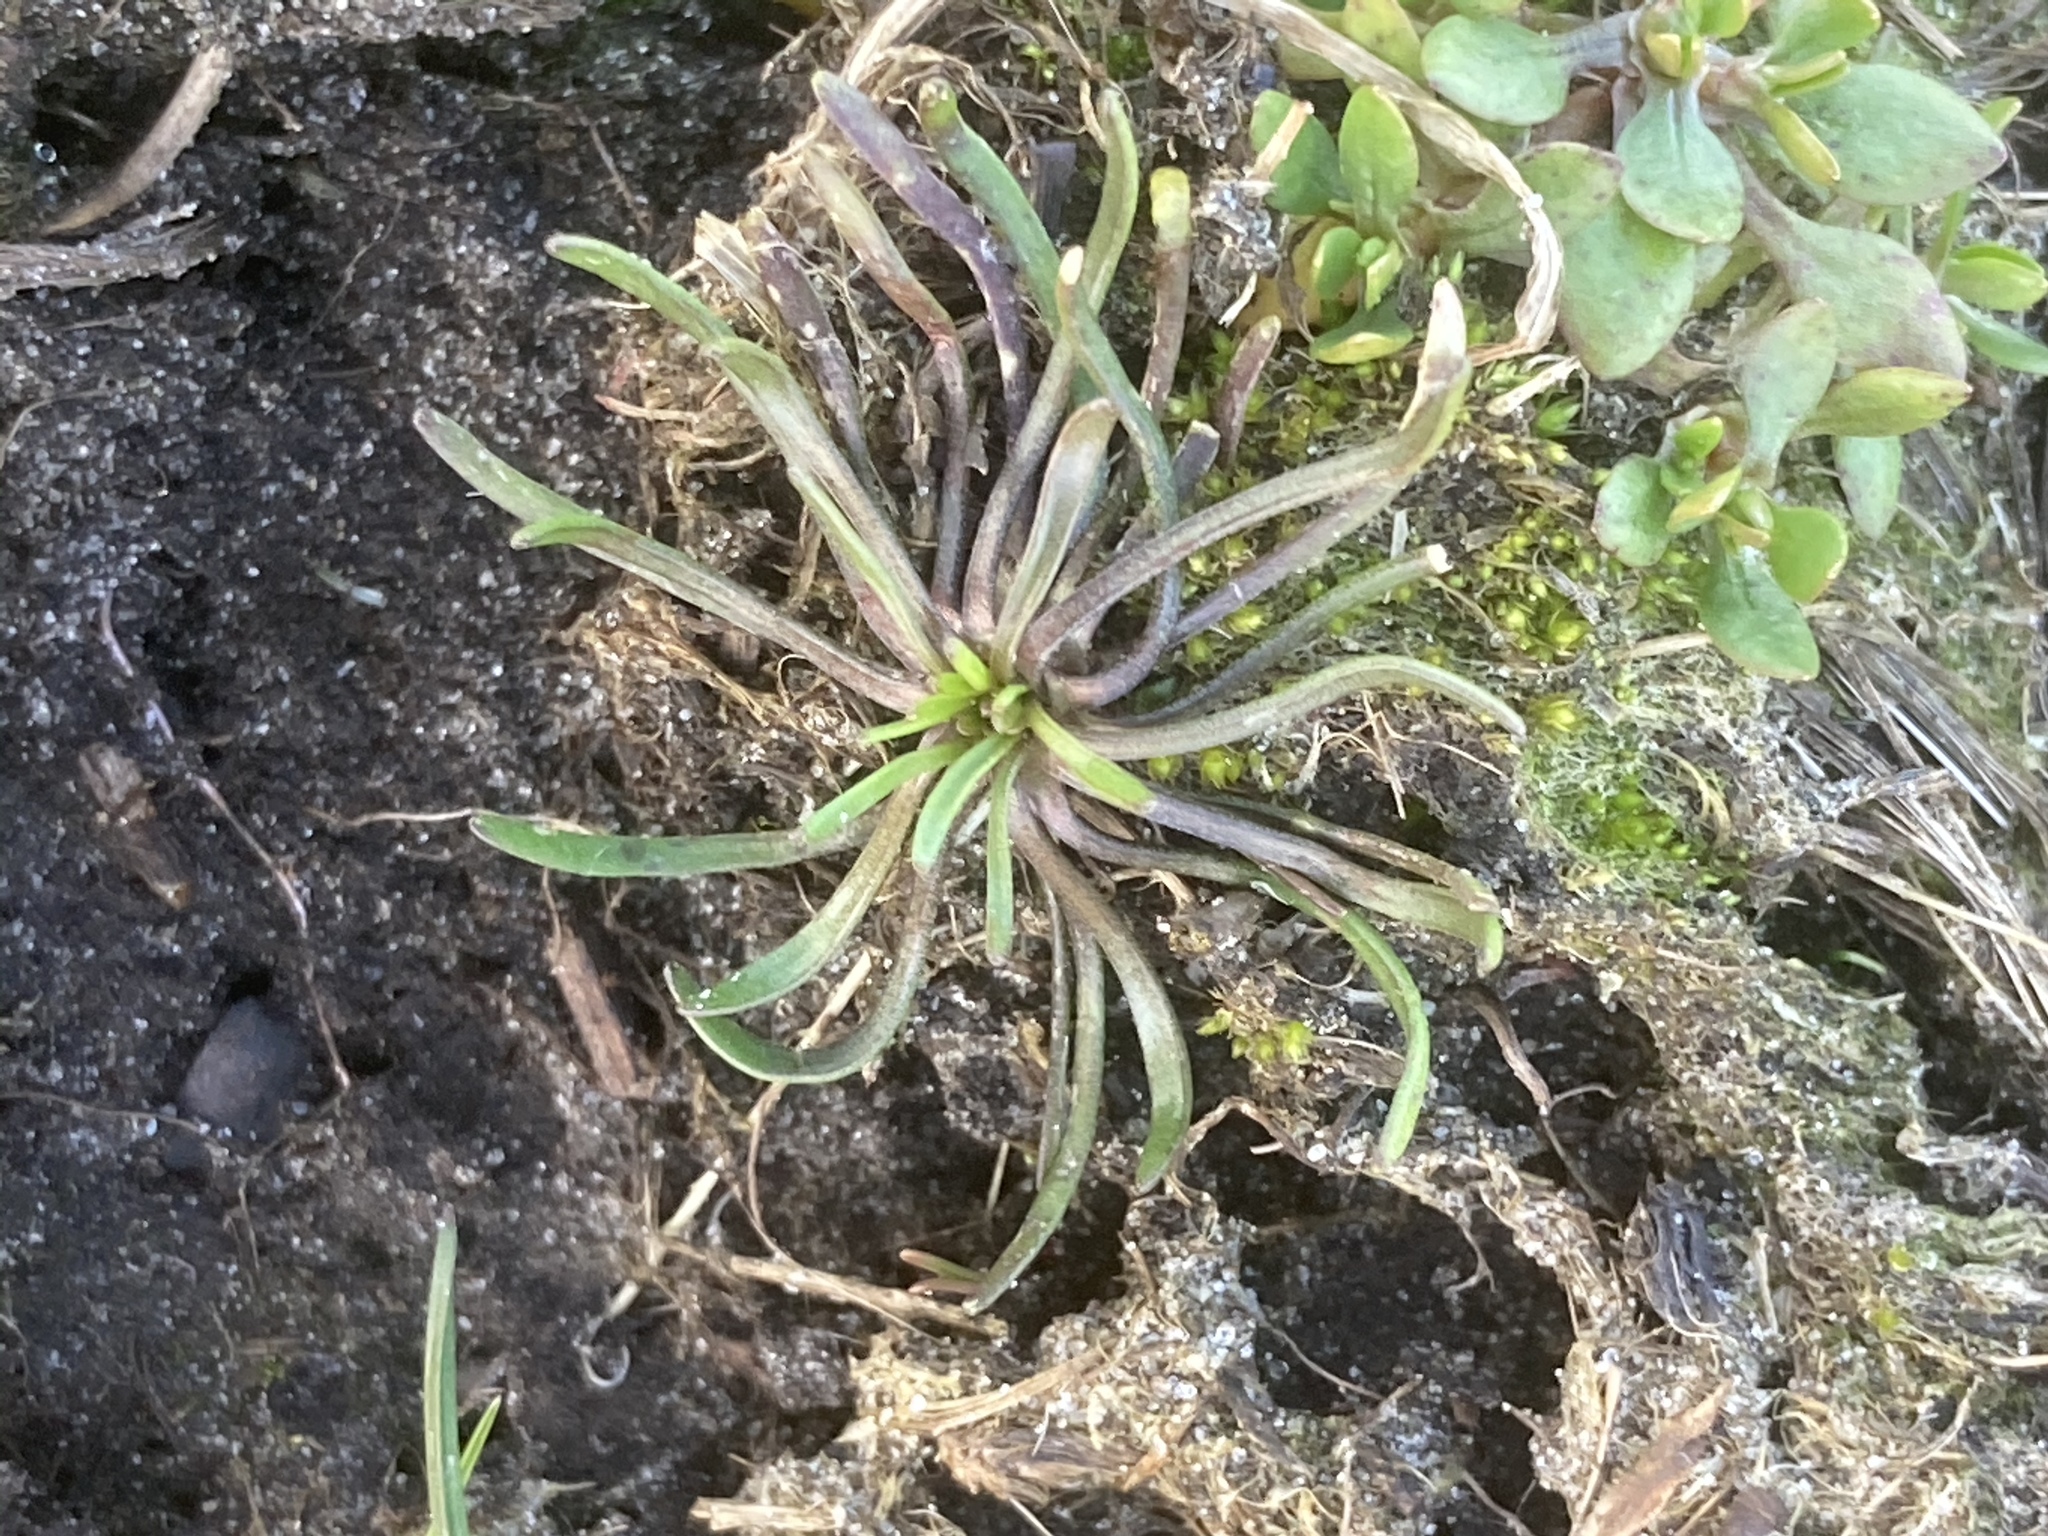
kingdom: Plantae
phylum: Tracheophyta
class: Magnoliopsida
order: Ranunculales
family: Ranunculaceae
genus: Myosurus
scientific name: Myosurus minimus
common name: Mousetail
